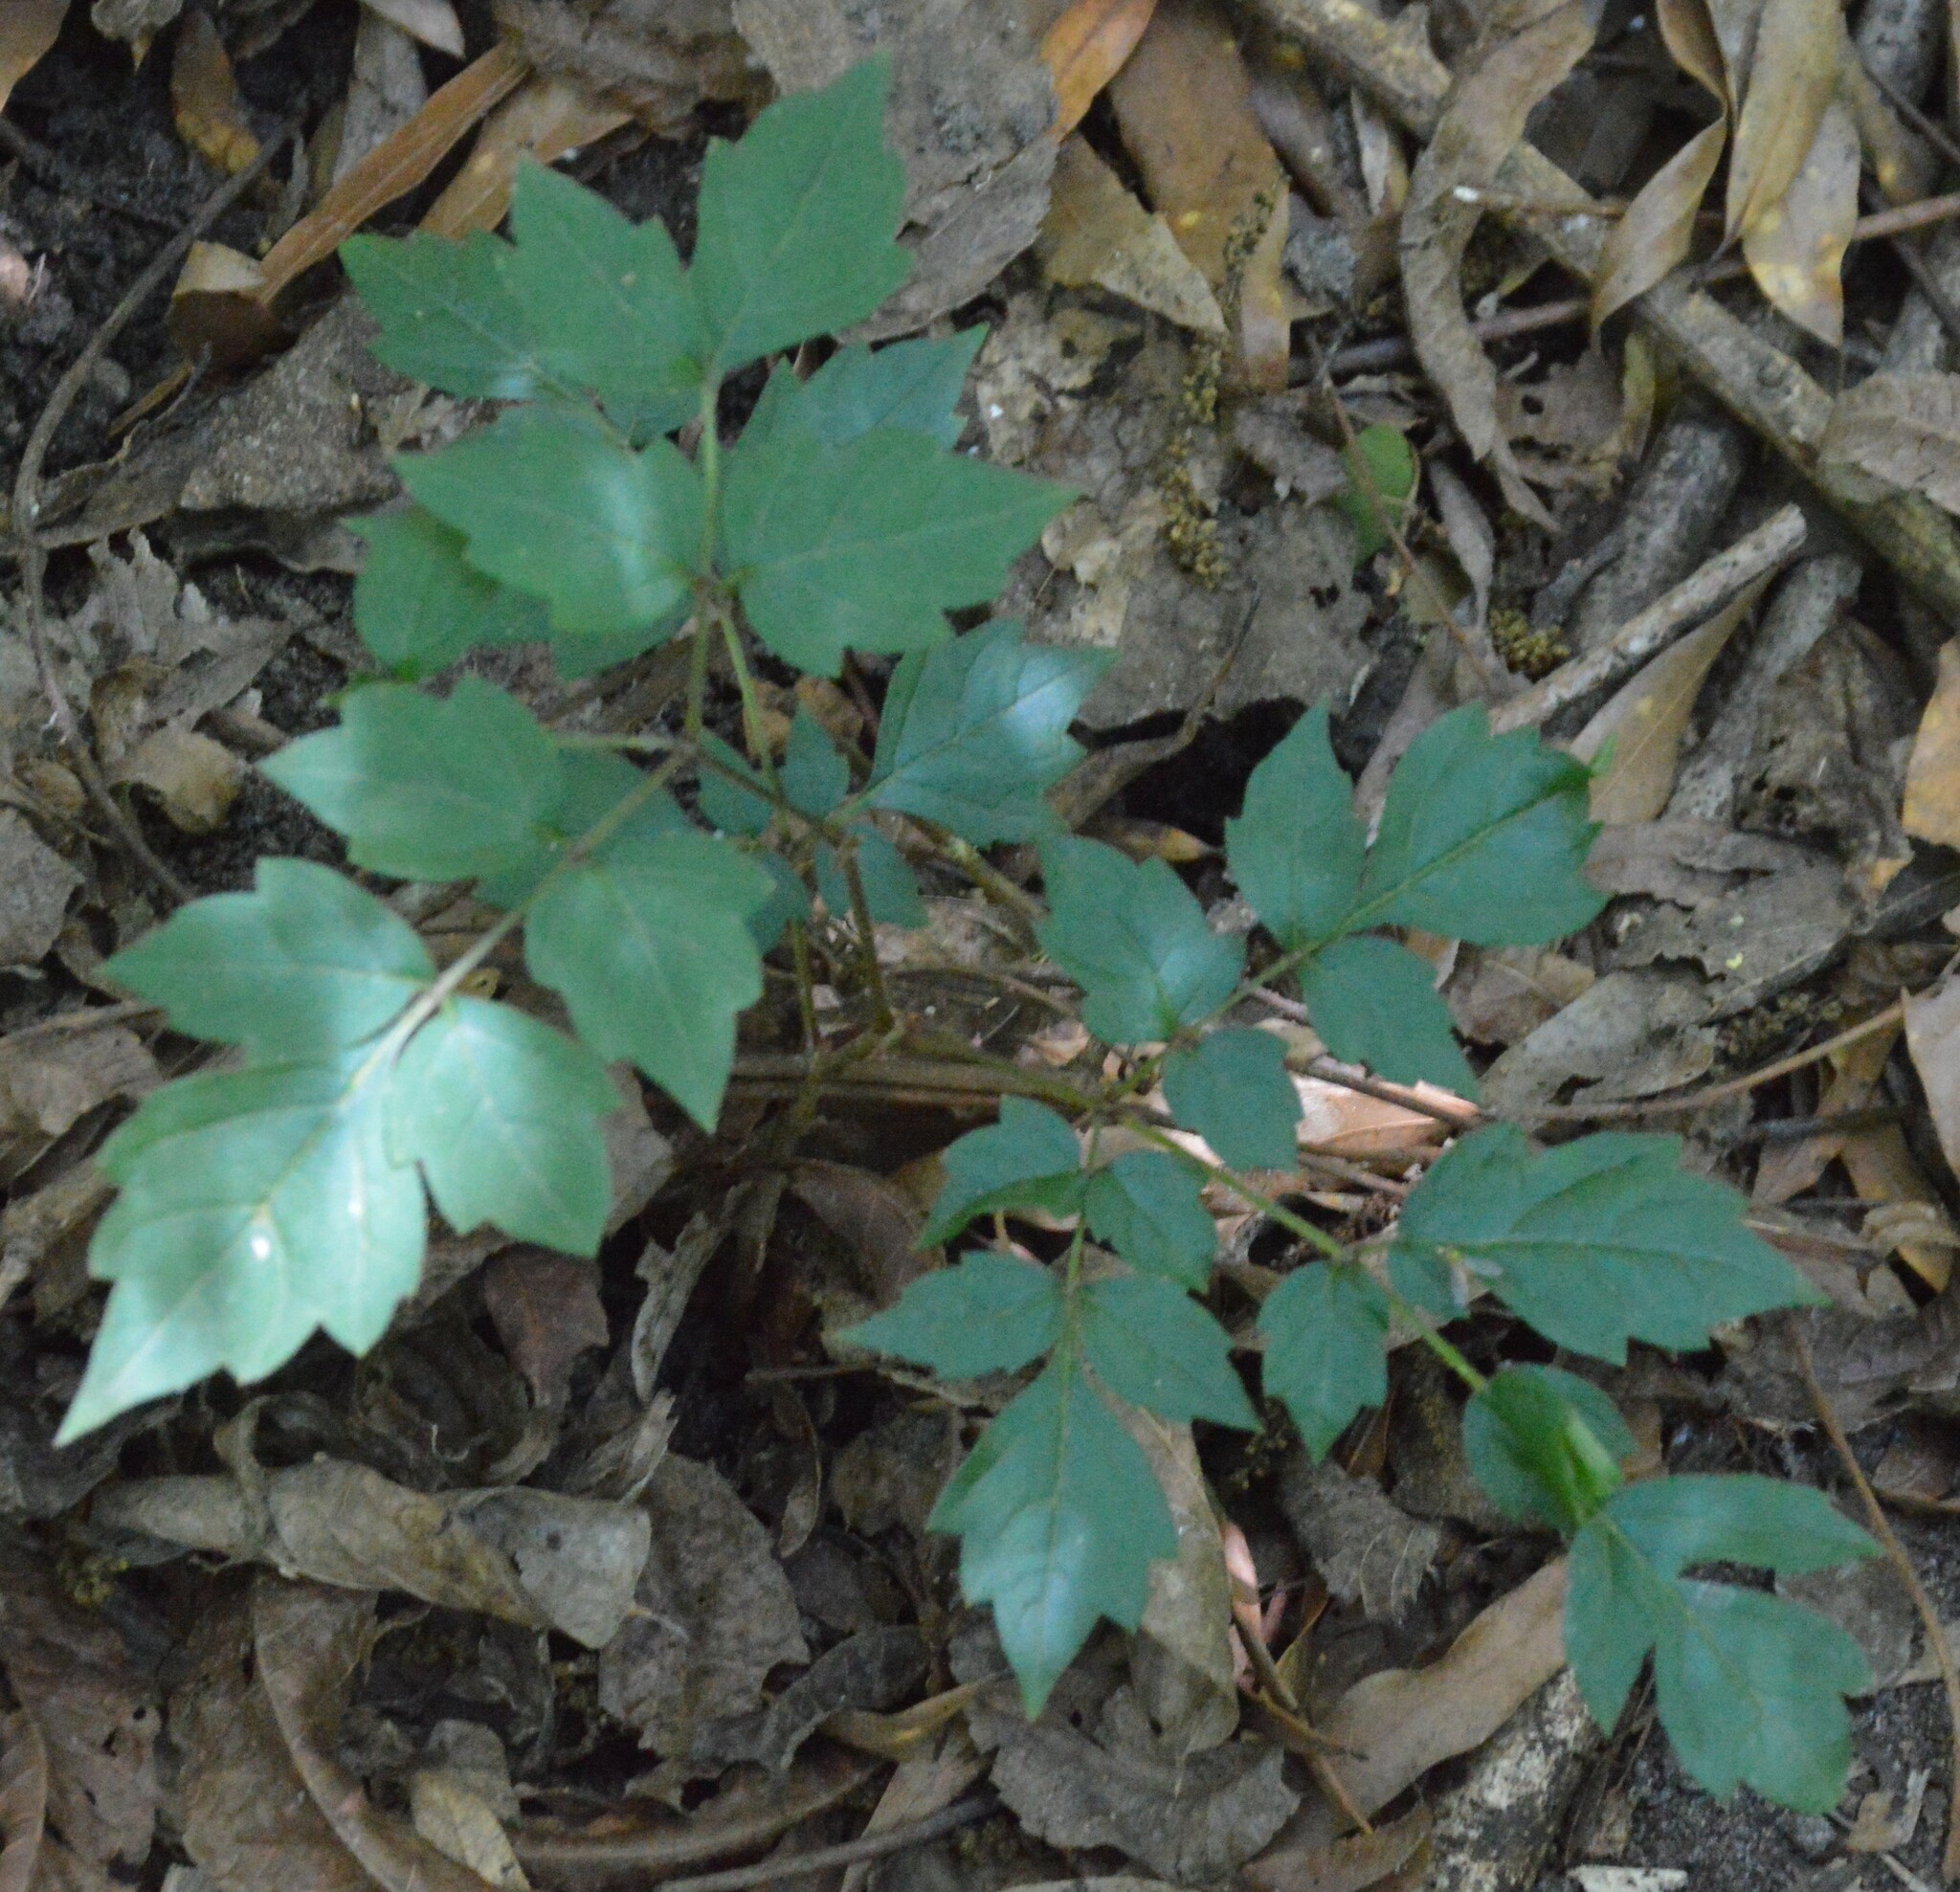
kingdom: Plantae
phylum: Tracheophyta
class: Magnoliopsida
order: Vitales
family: Vitaceae
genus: Nekemias
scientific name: Nekemias arborea
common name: Peppervine
